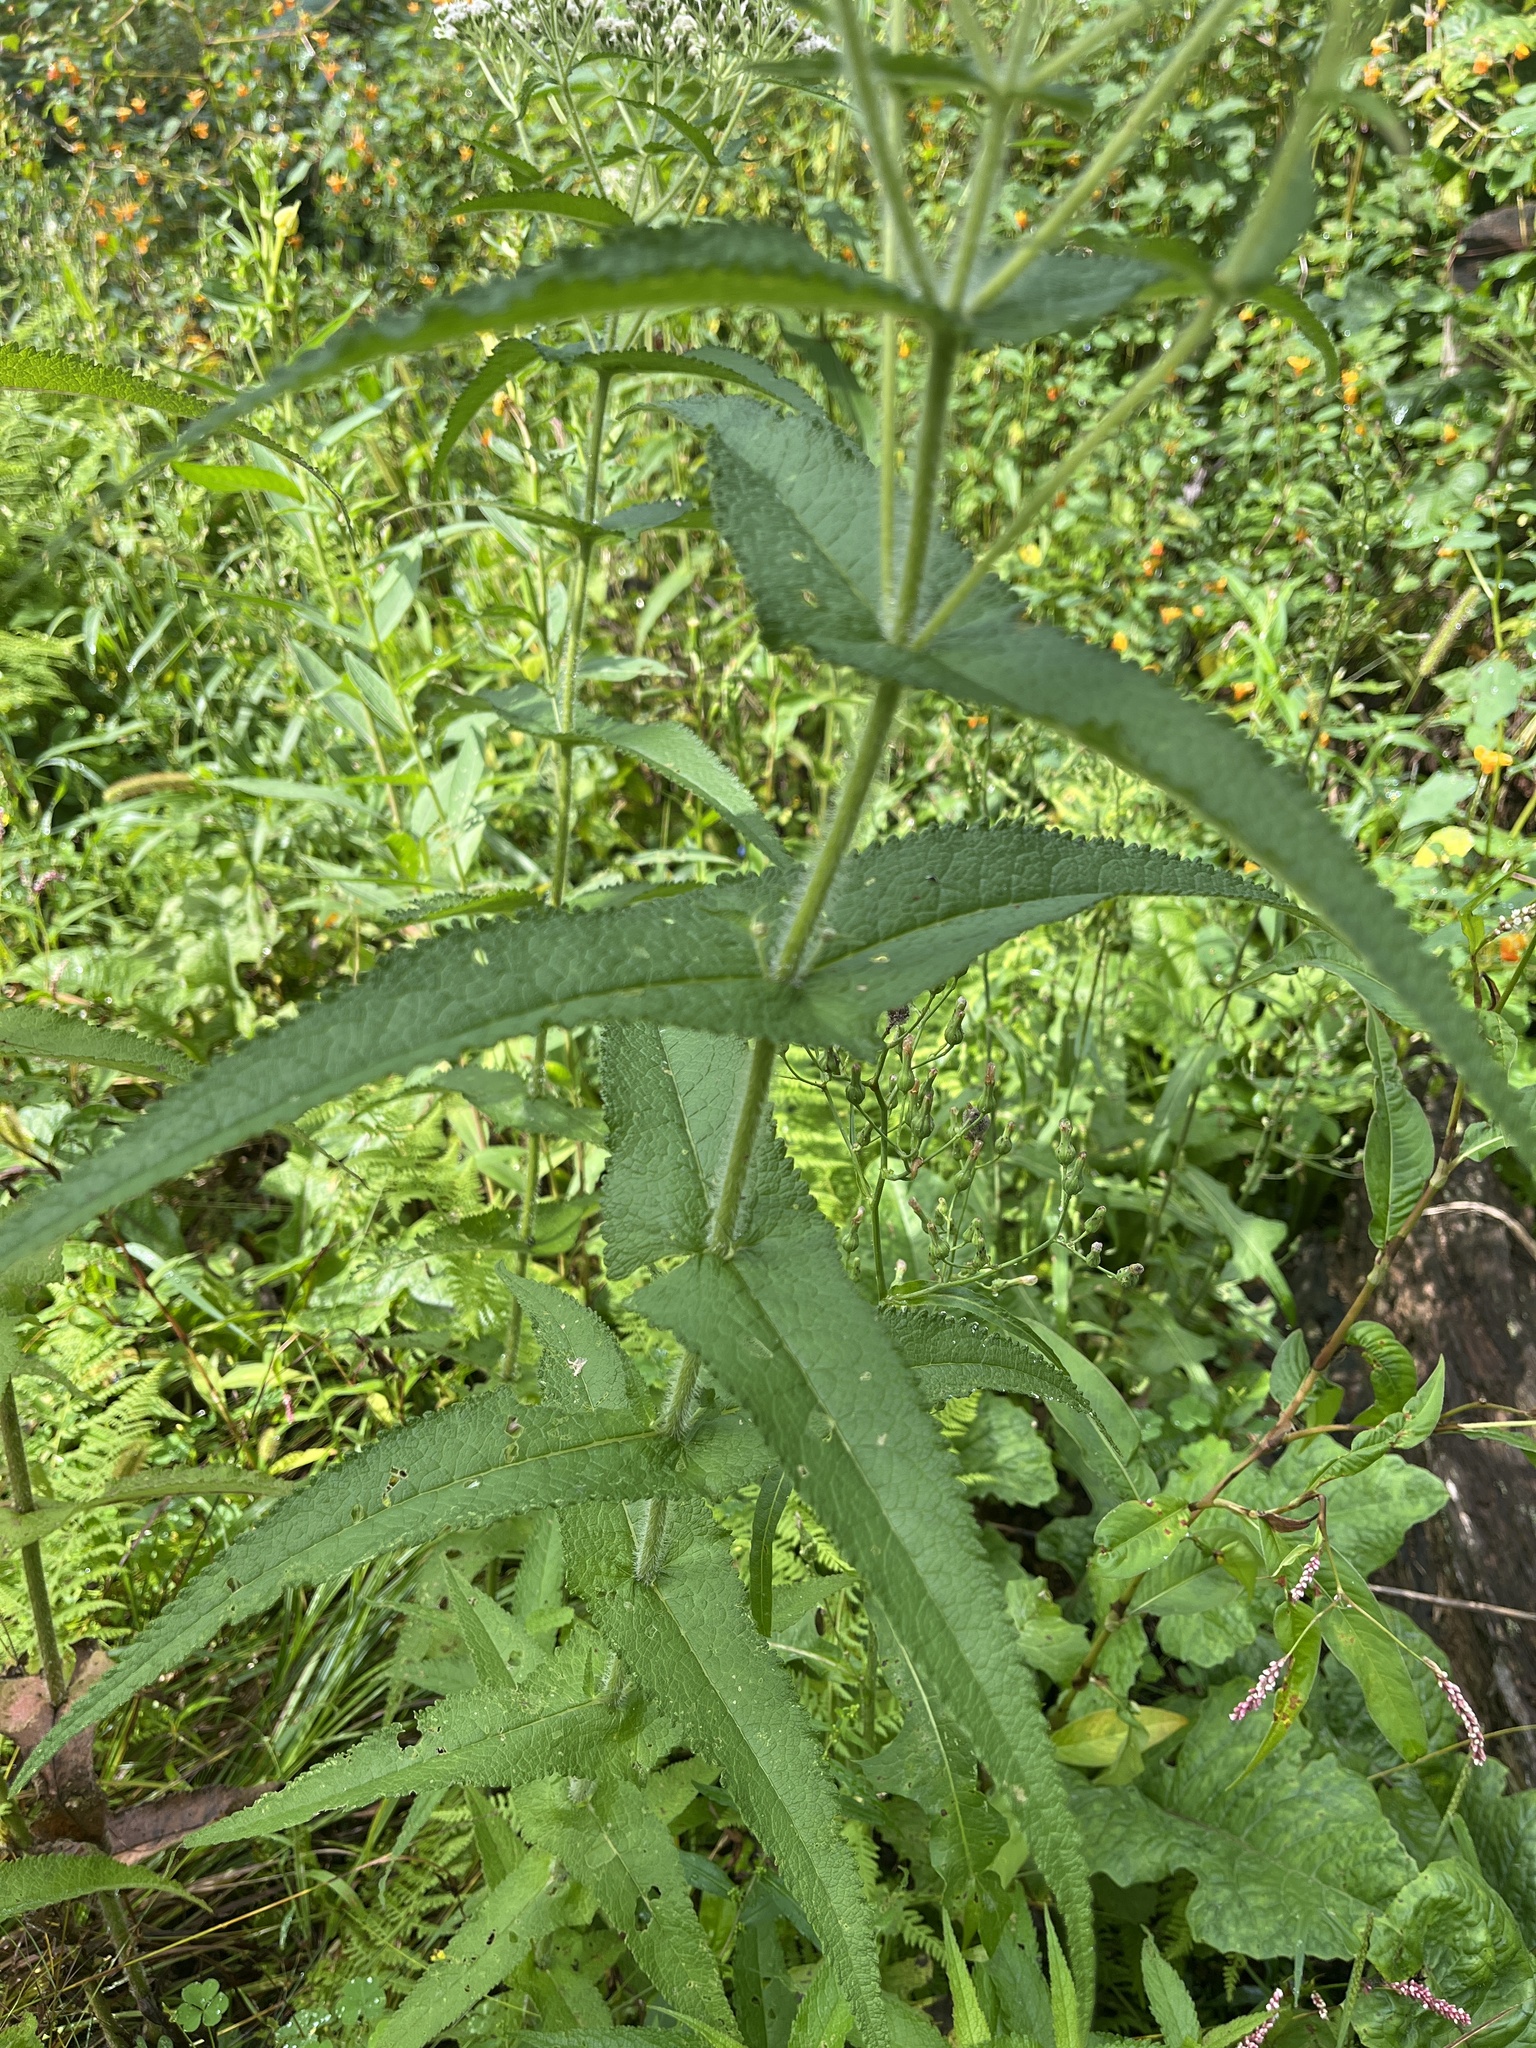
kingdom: Plantae
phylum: Tracheophyta
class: Magnoliopsida
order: Asterales
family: Asteraceae
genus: Eupatorium
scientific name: Eupatorium perfoliatum
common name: Boneset
